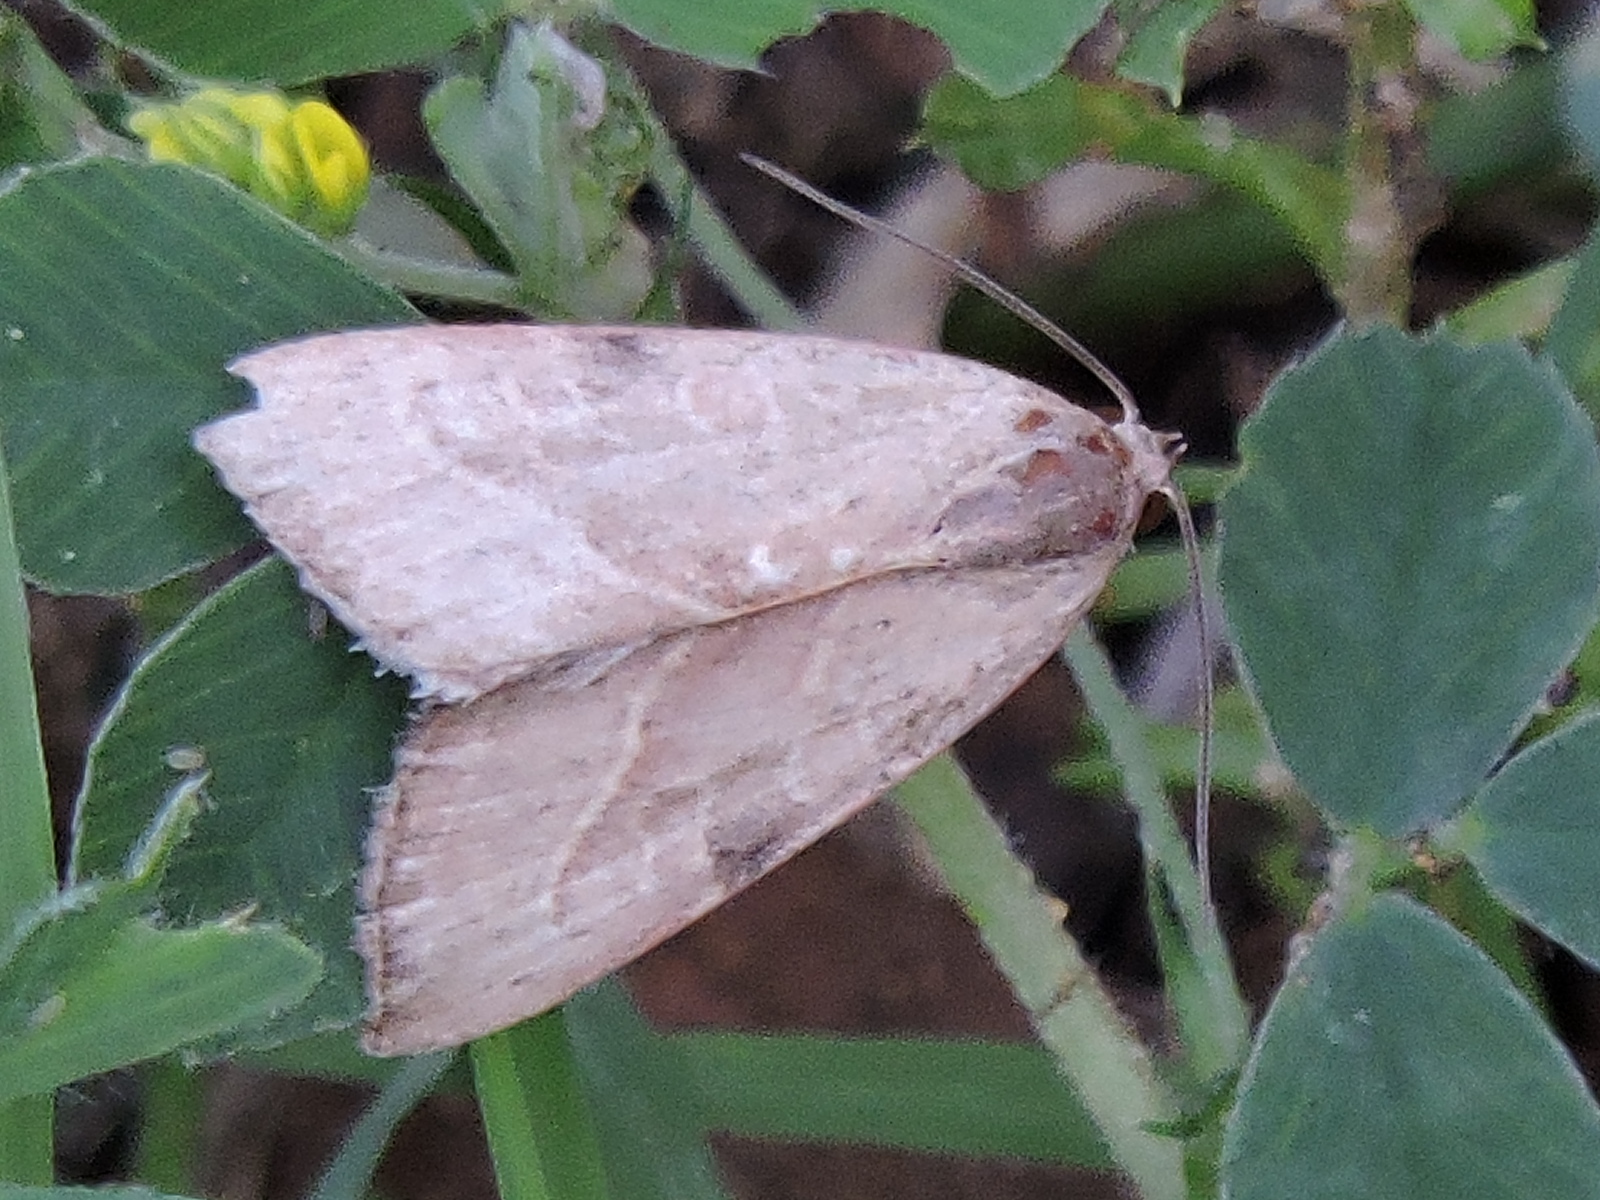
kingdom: Animalia
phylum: Arthropoda
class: Insecta
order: Lepidoptera
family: Noctuidae
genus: Galgula
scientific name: Galgula partita
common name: Wedgeling
